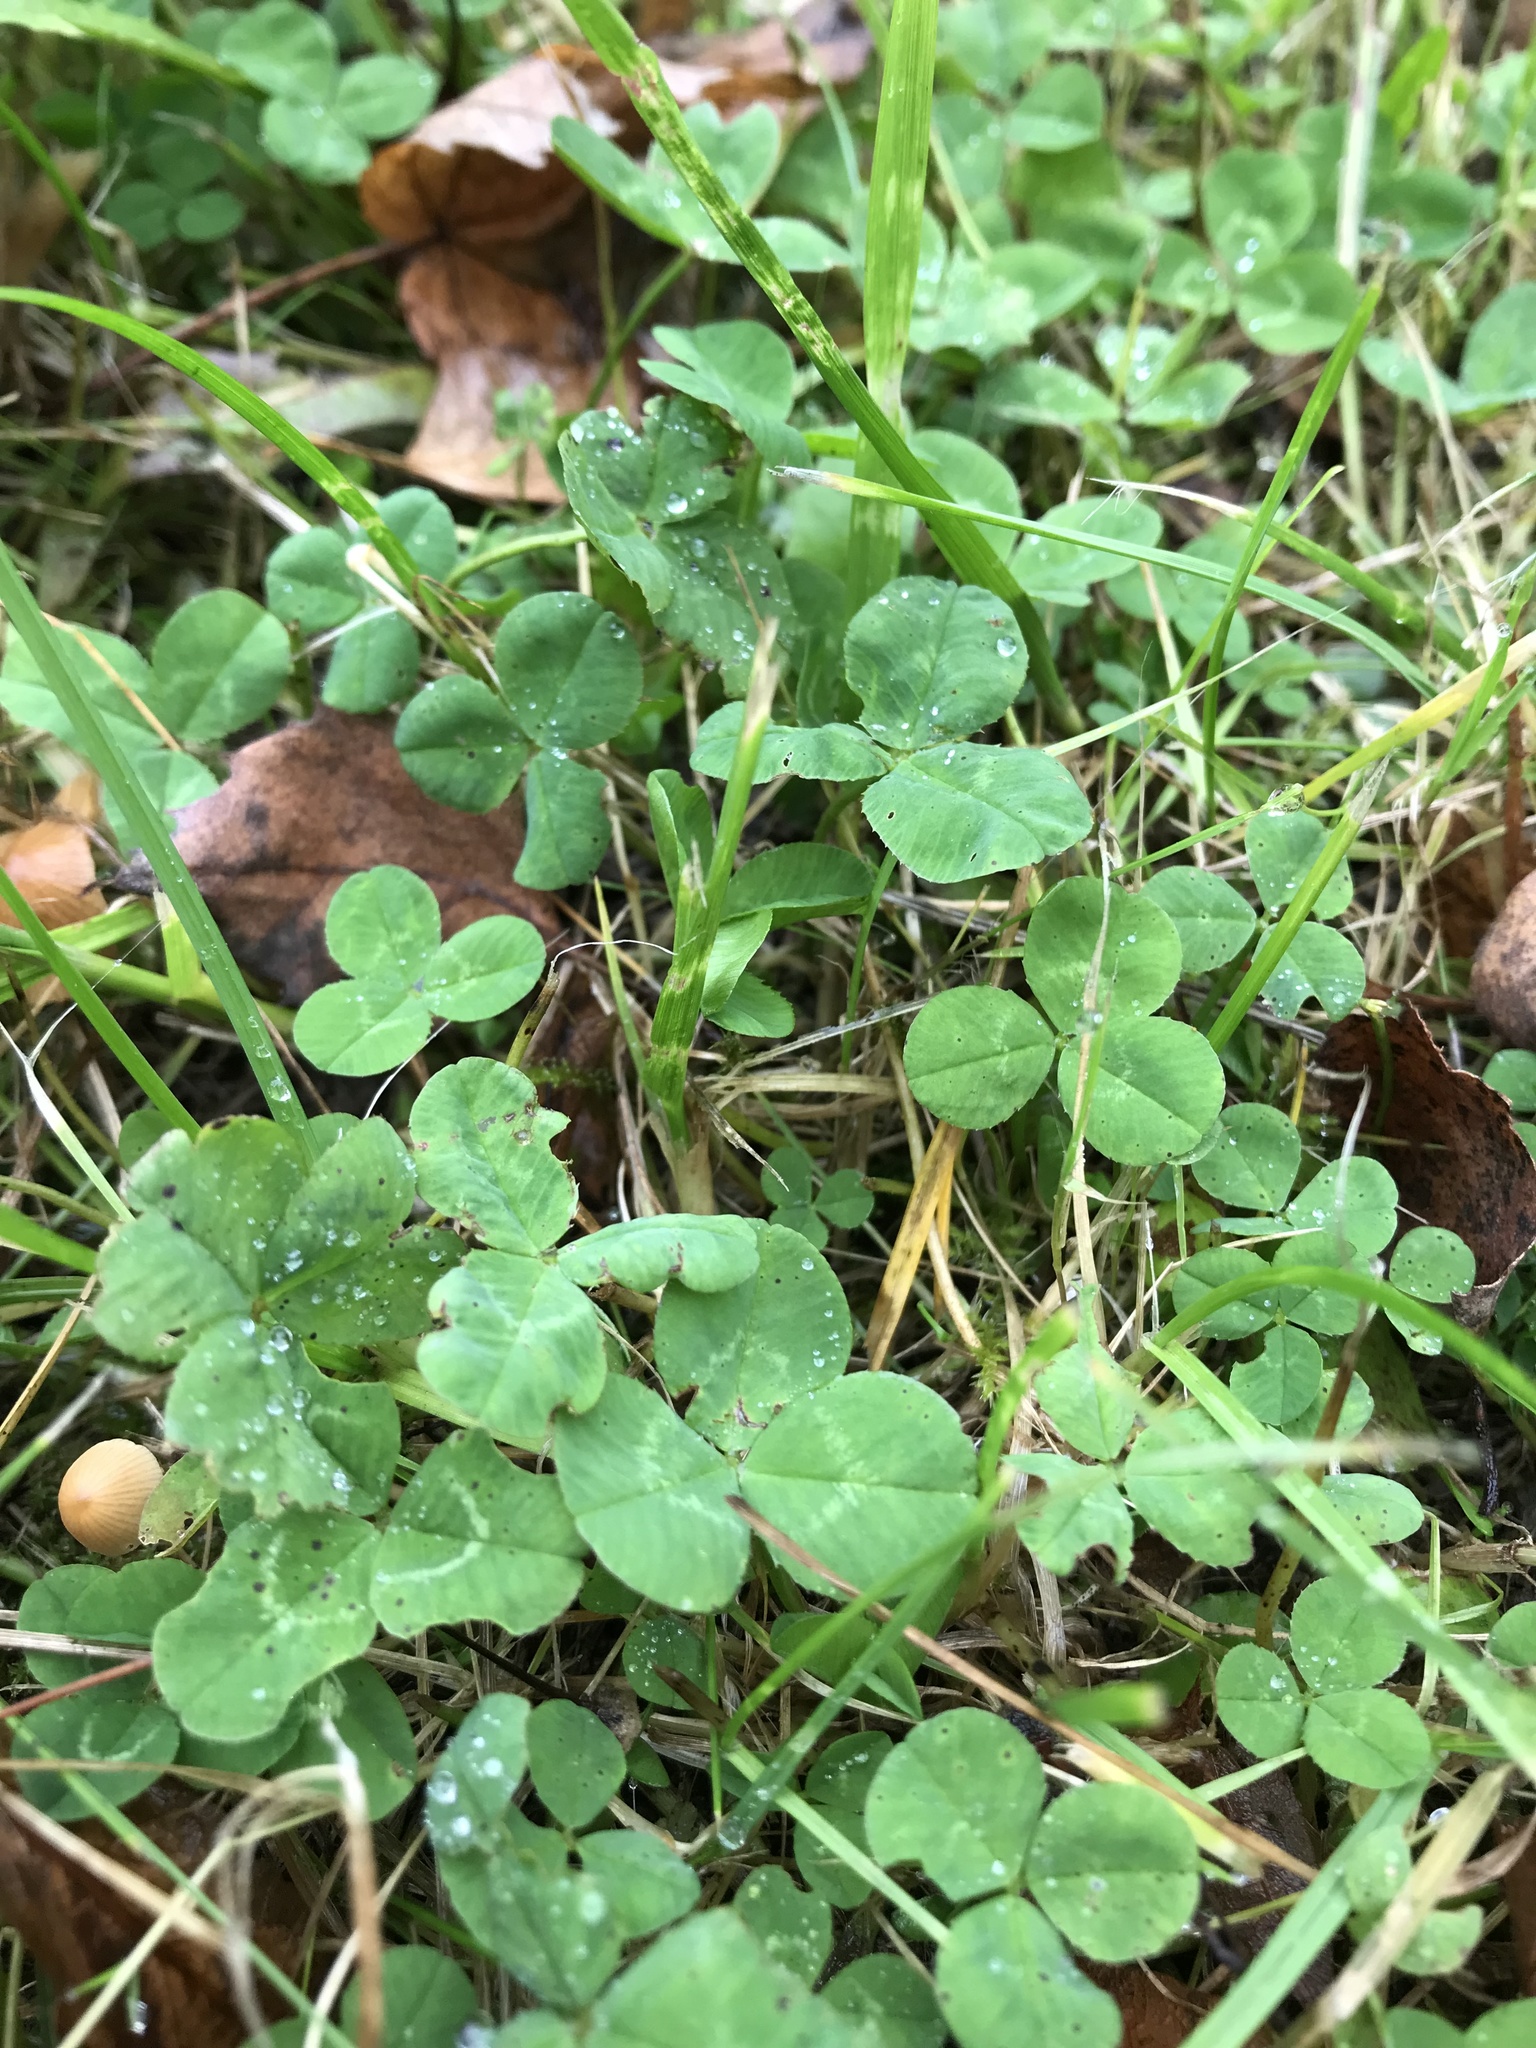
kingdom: Plantae
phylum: Tracheophyta
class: Magnoliopsida
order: Fabales
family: Fabaceae
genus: Trifolium
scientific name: Trifolium repens
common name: White clover
